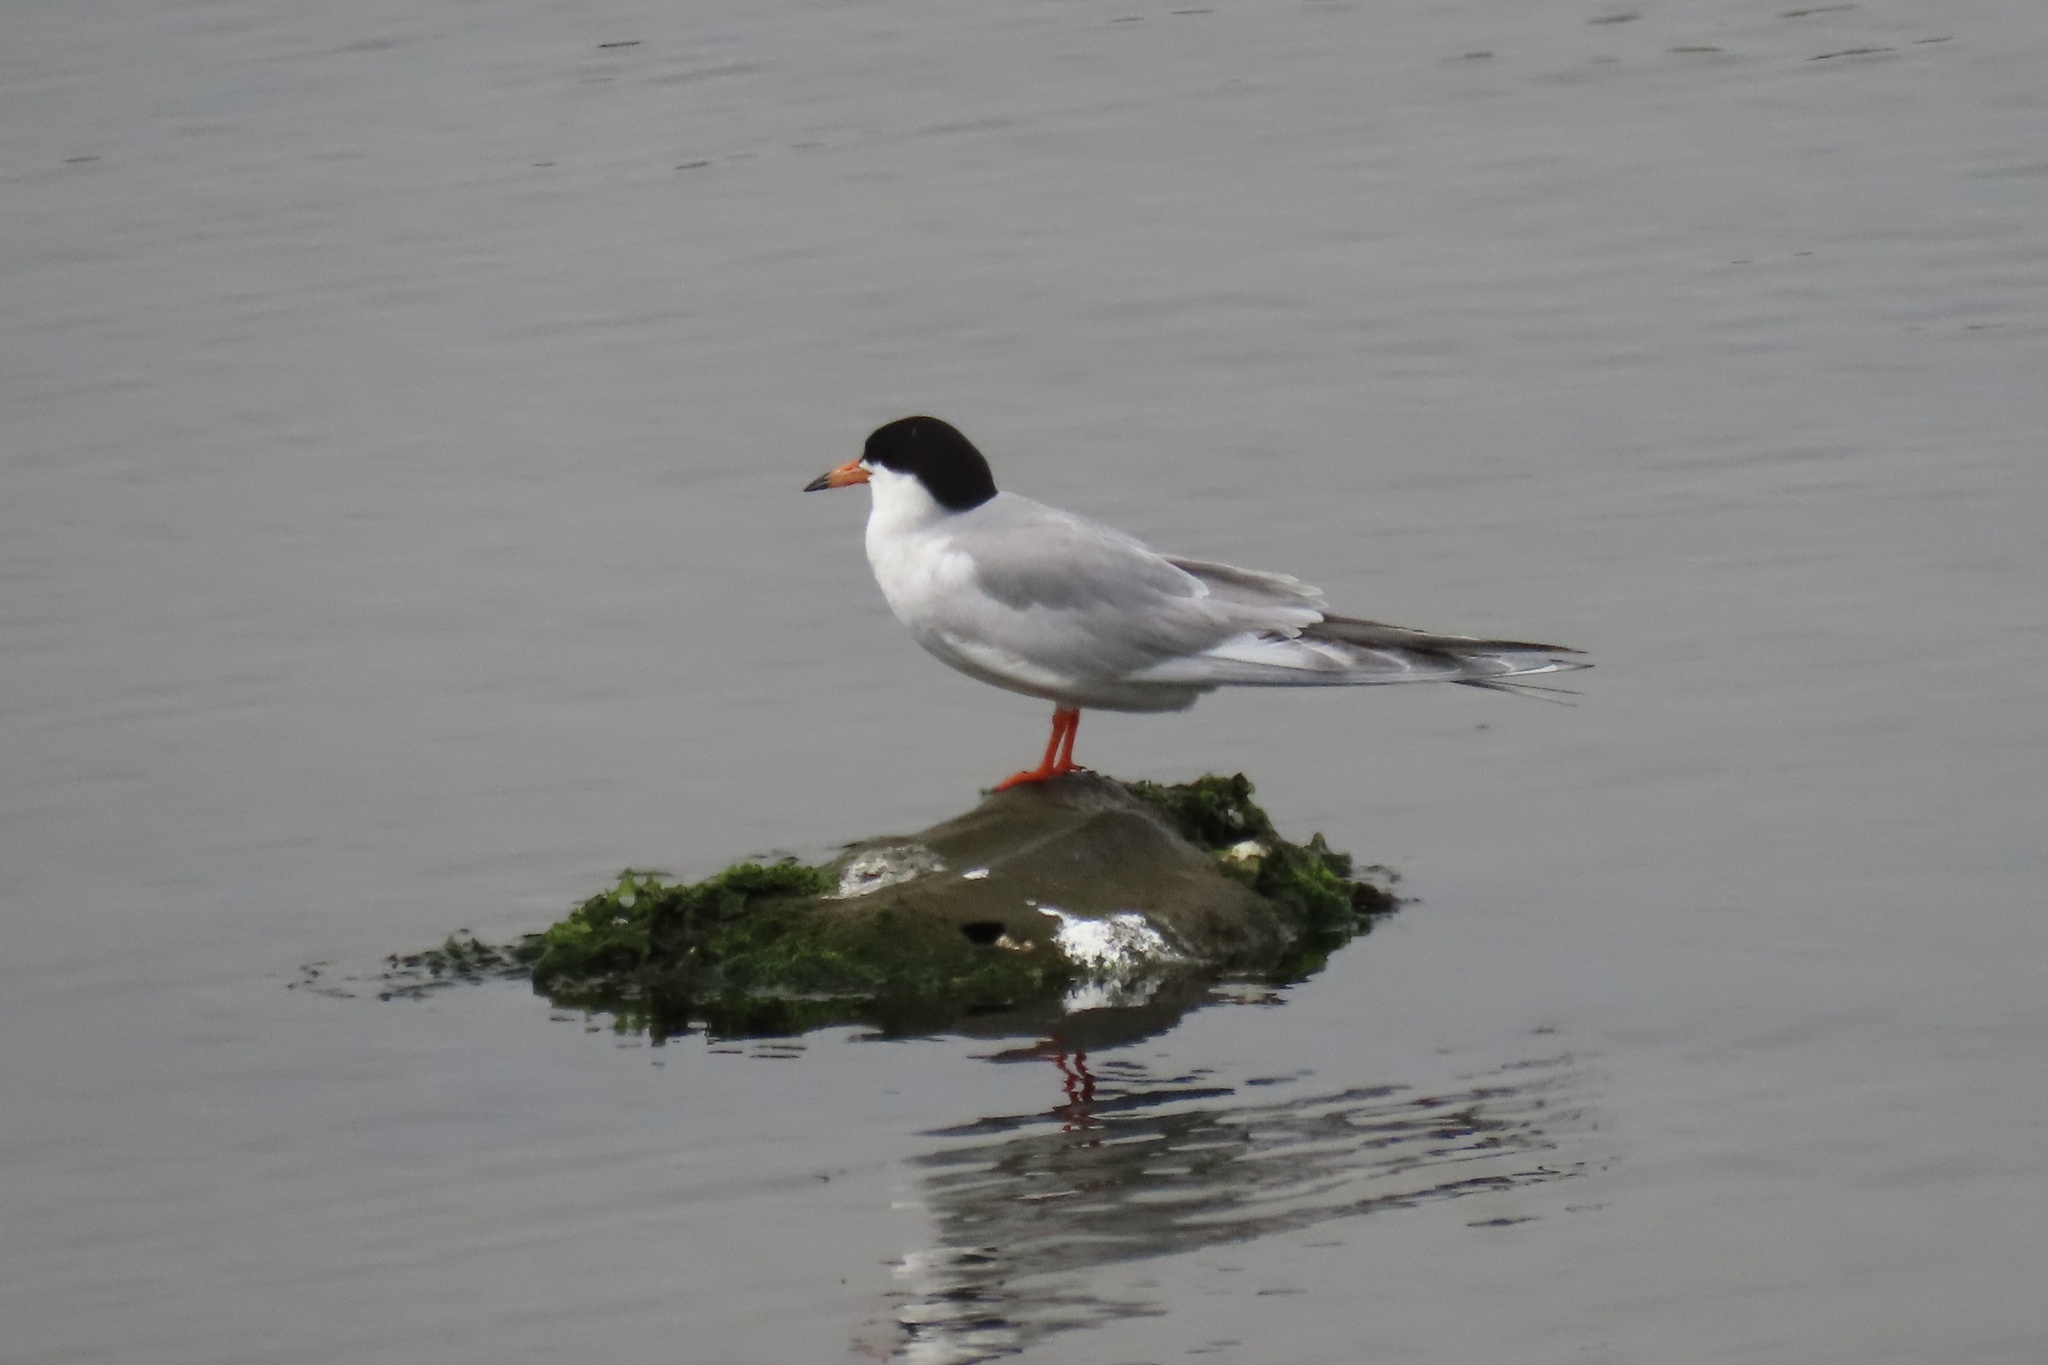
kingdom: Animalia
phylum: Chordata
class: Aves
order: Charadriiformes
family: Laridae
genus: Sterna
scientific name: Sterna forsteri
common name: Forster's tern
